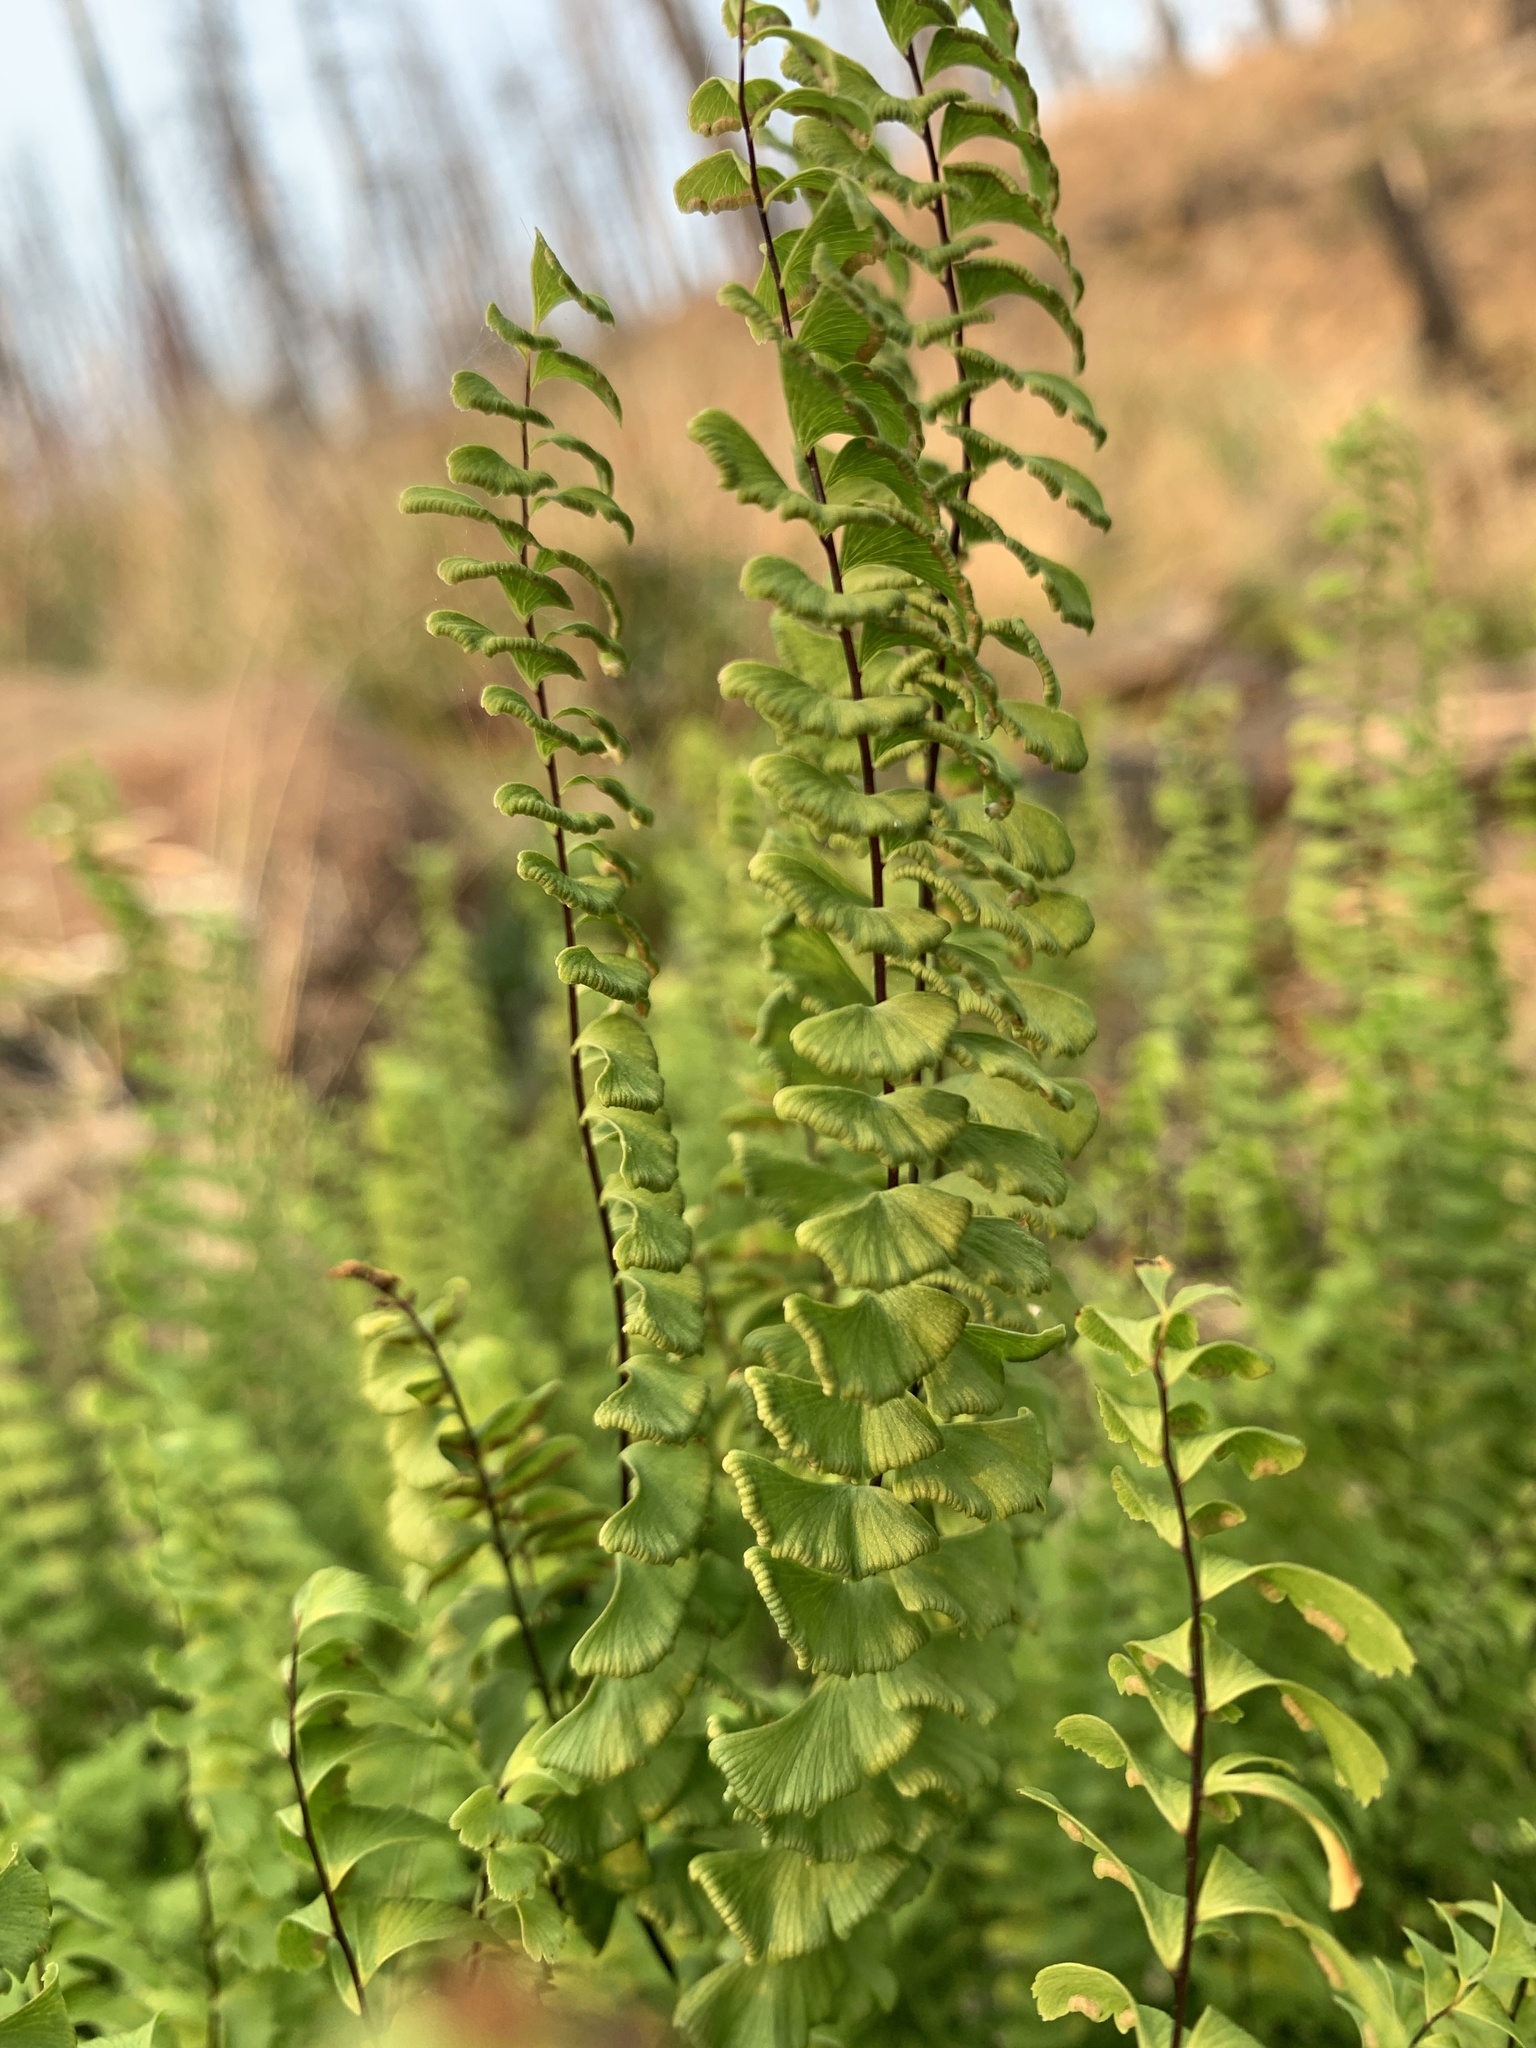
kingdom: Plantae
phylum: Tracheophyta
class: Polypodiopsida
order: Polypodiales
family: Pteridaceae
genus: Adiantum
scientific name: Adiantum aleuticum
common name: Aleutian maidenhair fern
